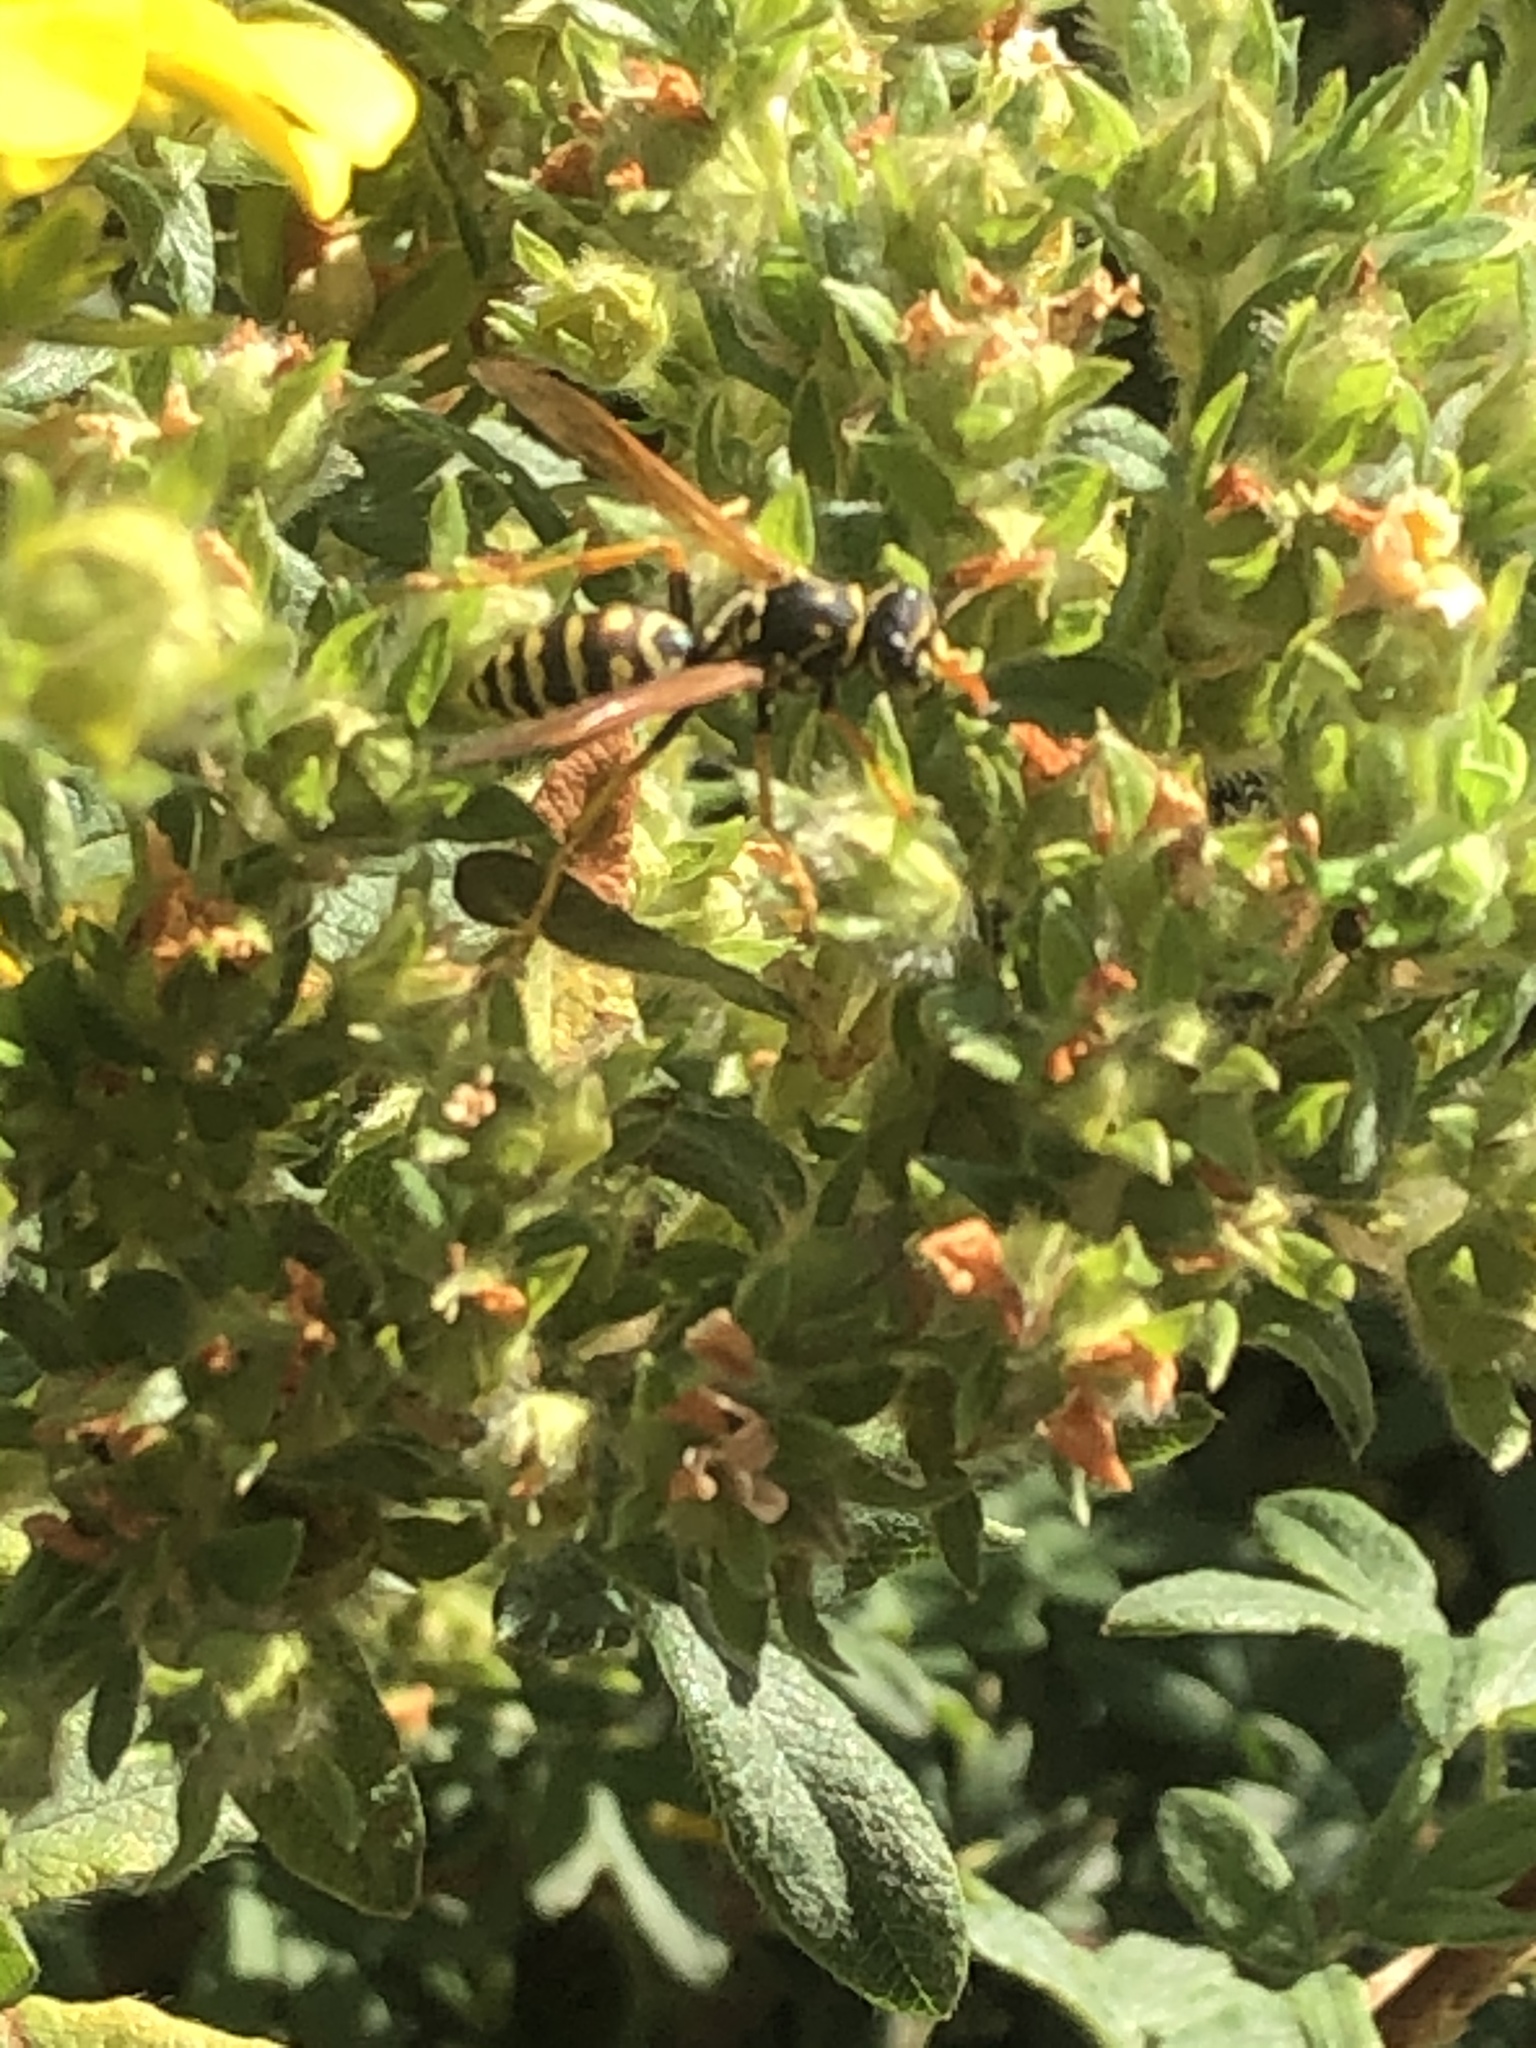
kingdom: Animalia
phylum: Arthropoda
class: Insecta
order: Hymenoptera
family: Eumenidae
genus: Polistes
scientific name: Polistes dominula
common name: Paper wasp
